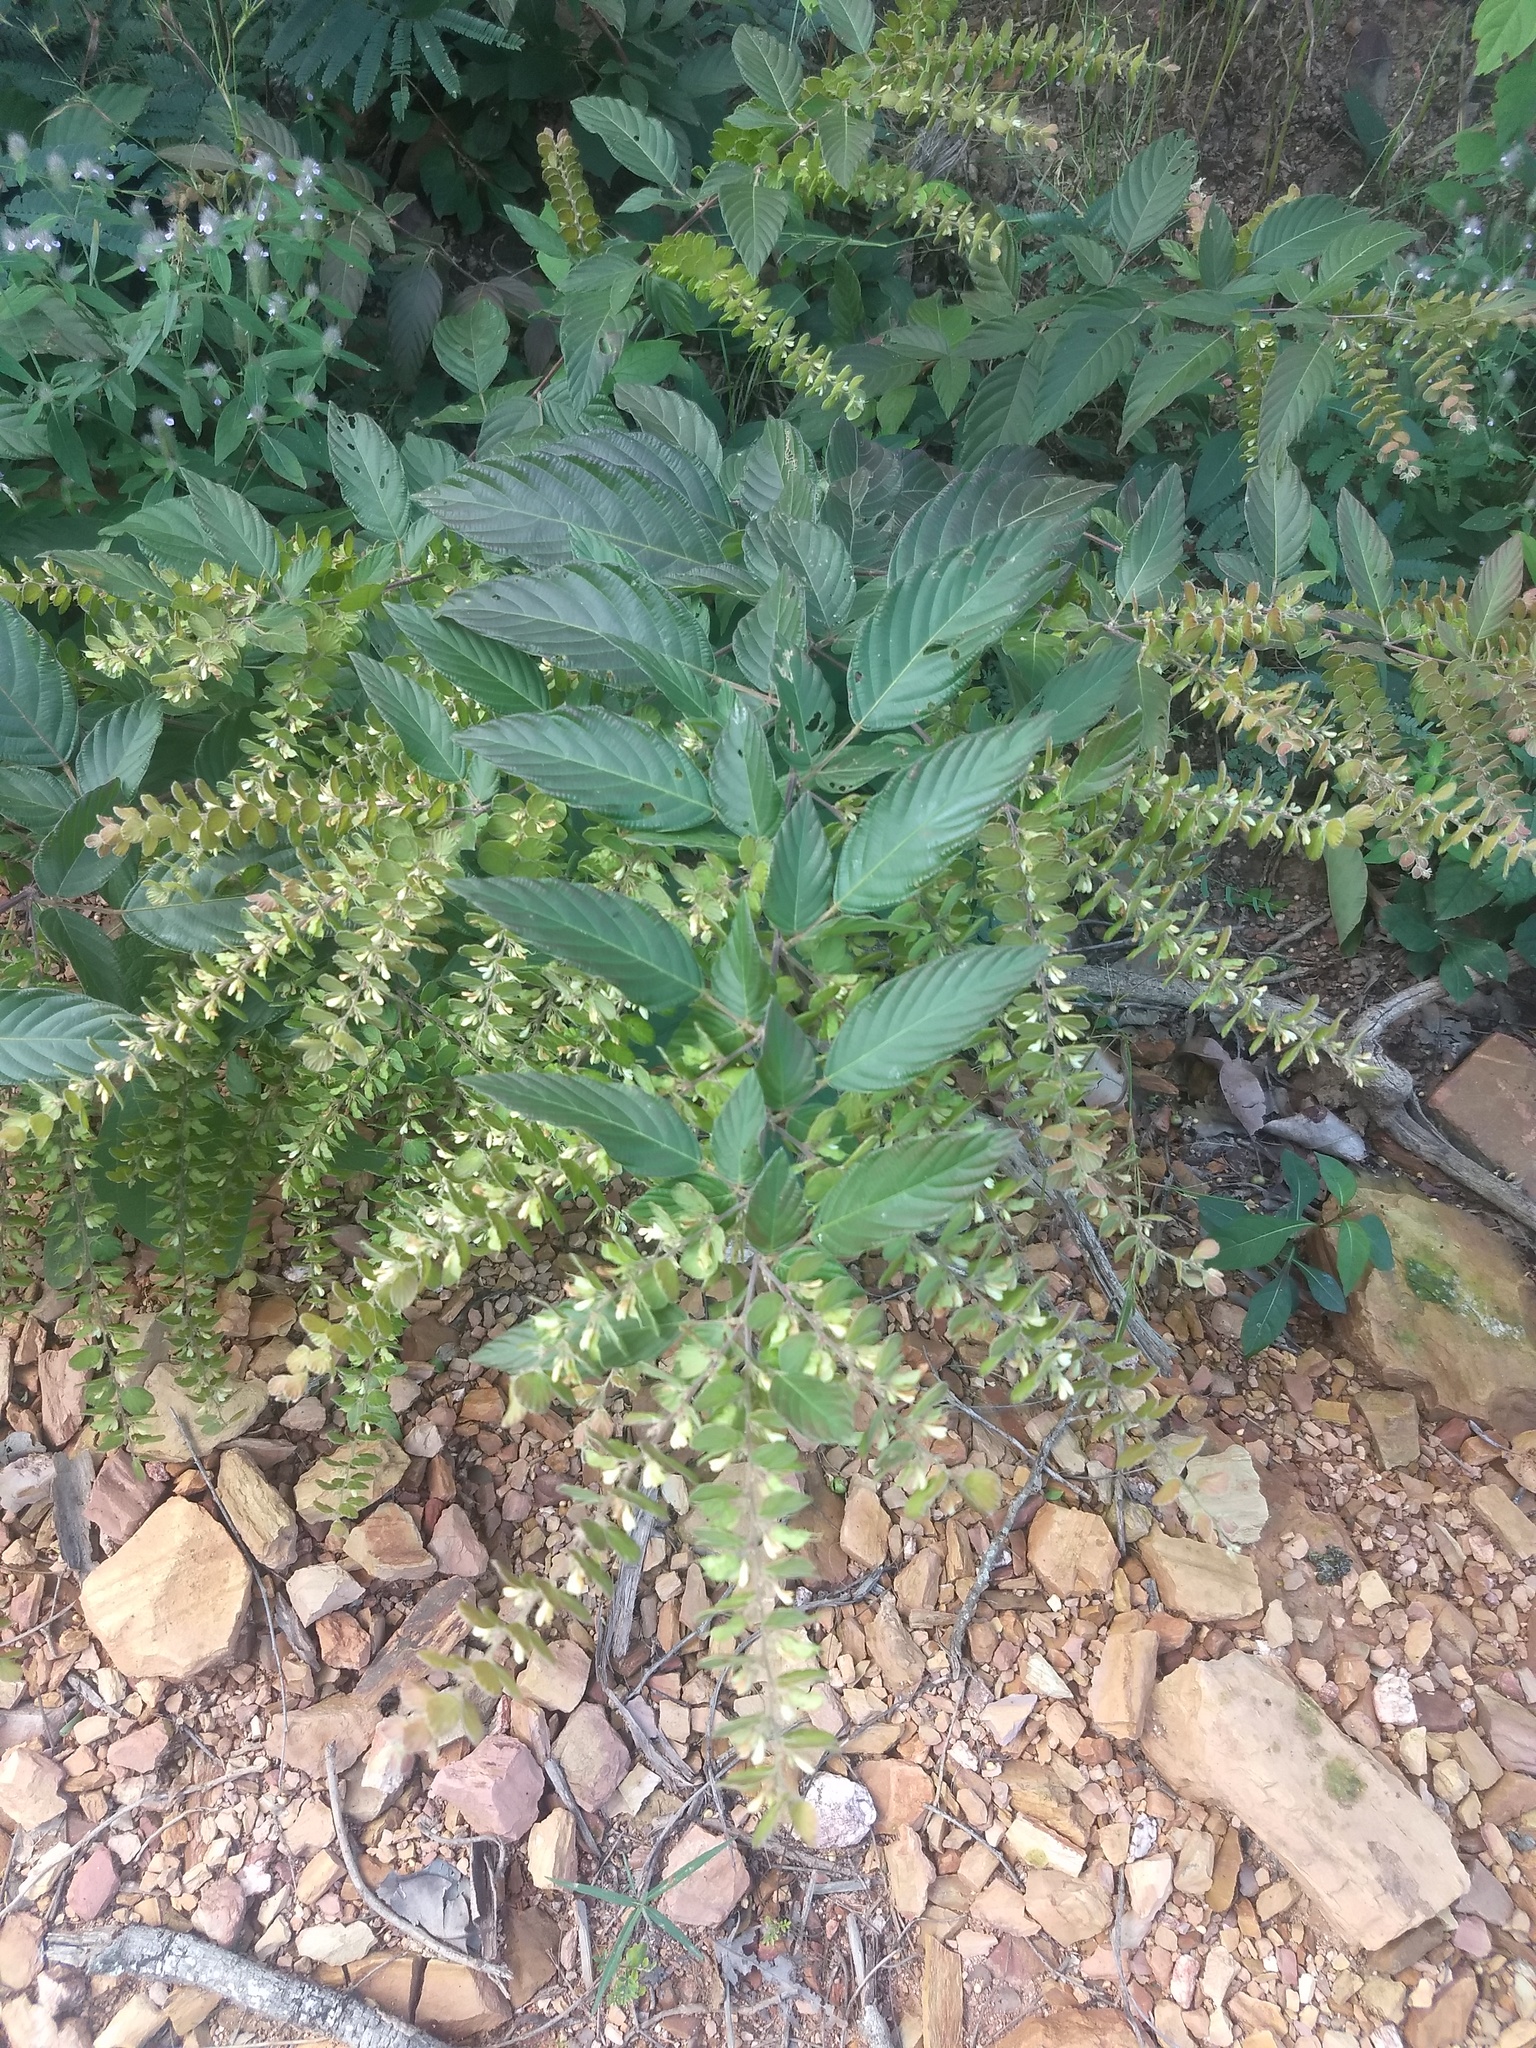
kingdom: Plantae
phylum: Tracheophyta
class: Magnoliopsida
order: Fabales
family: Fabaceae
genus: Phyllodium
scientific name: Phyllodium pulchellum
